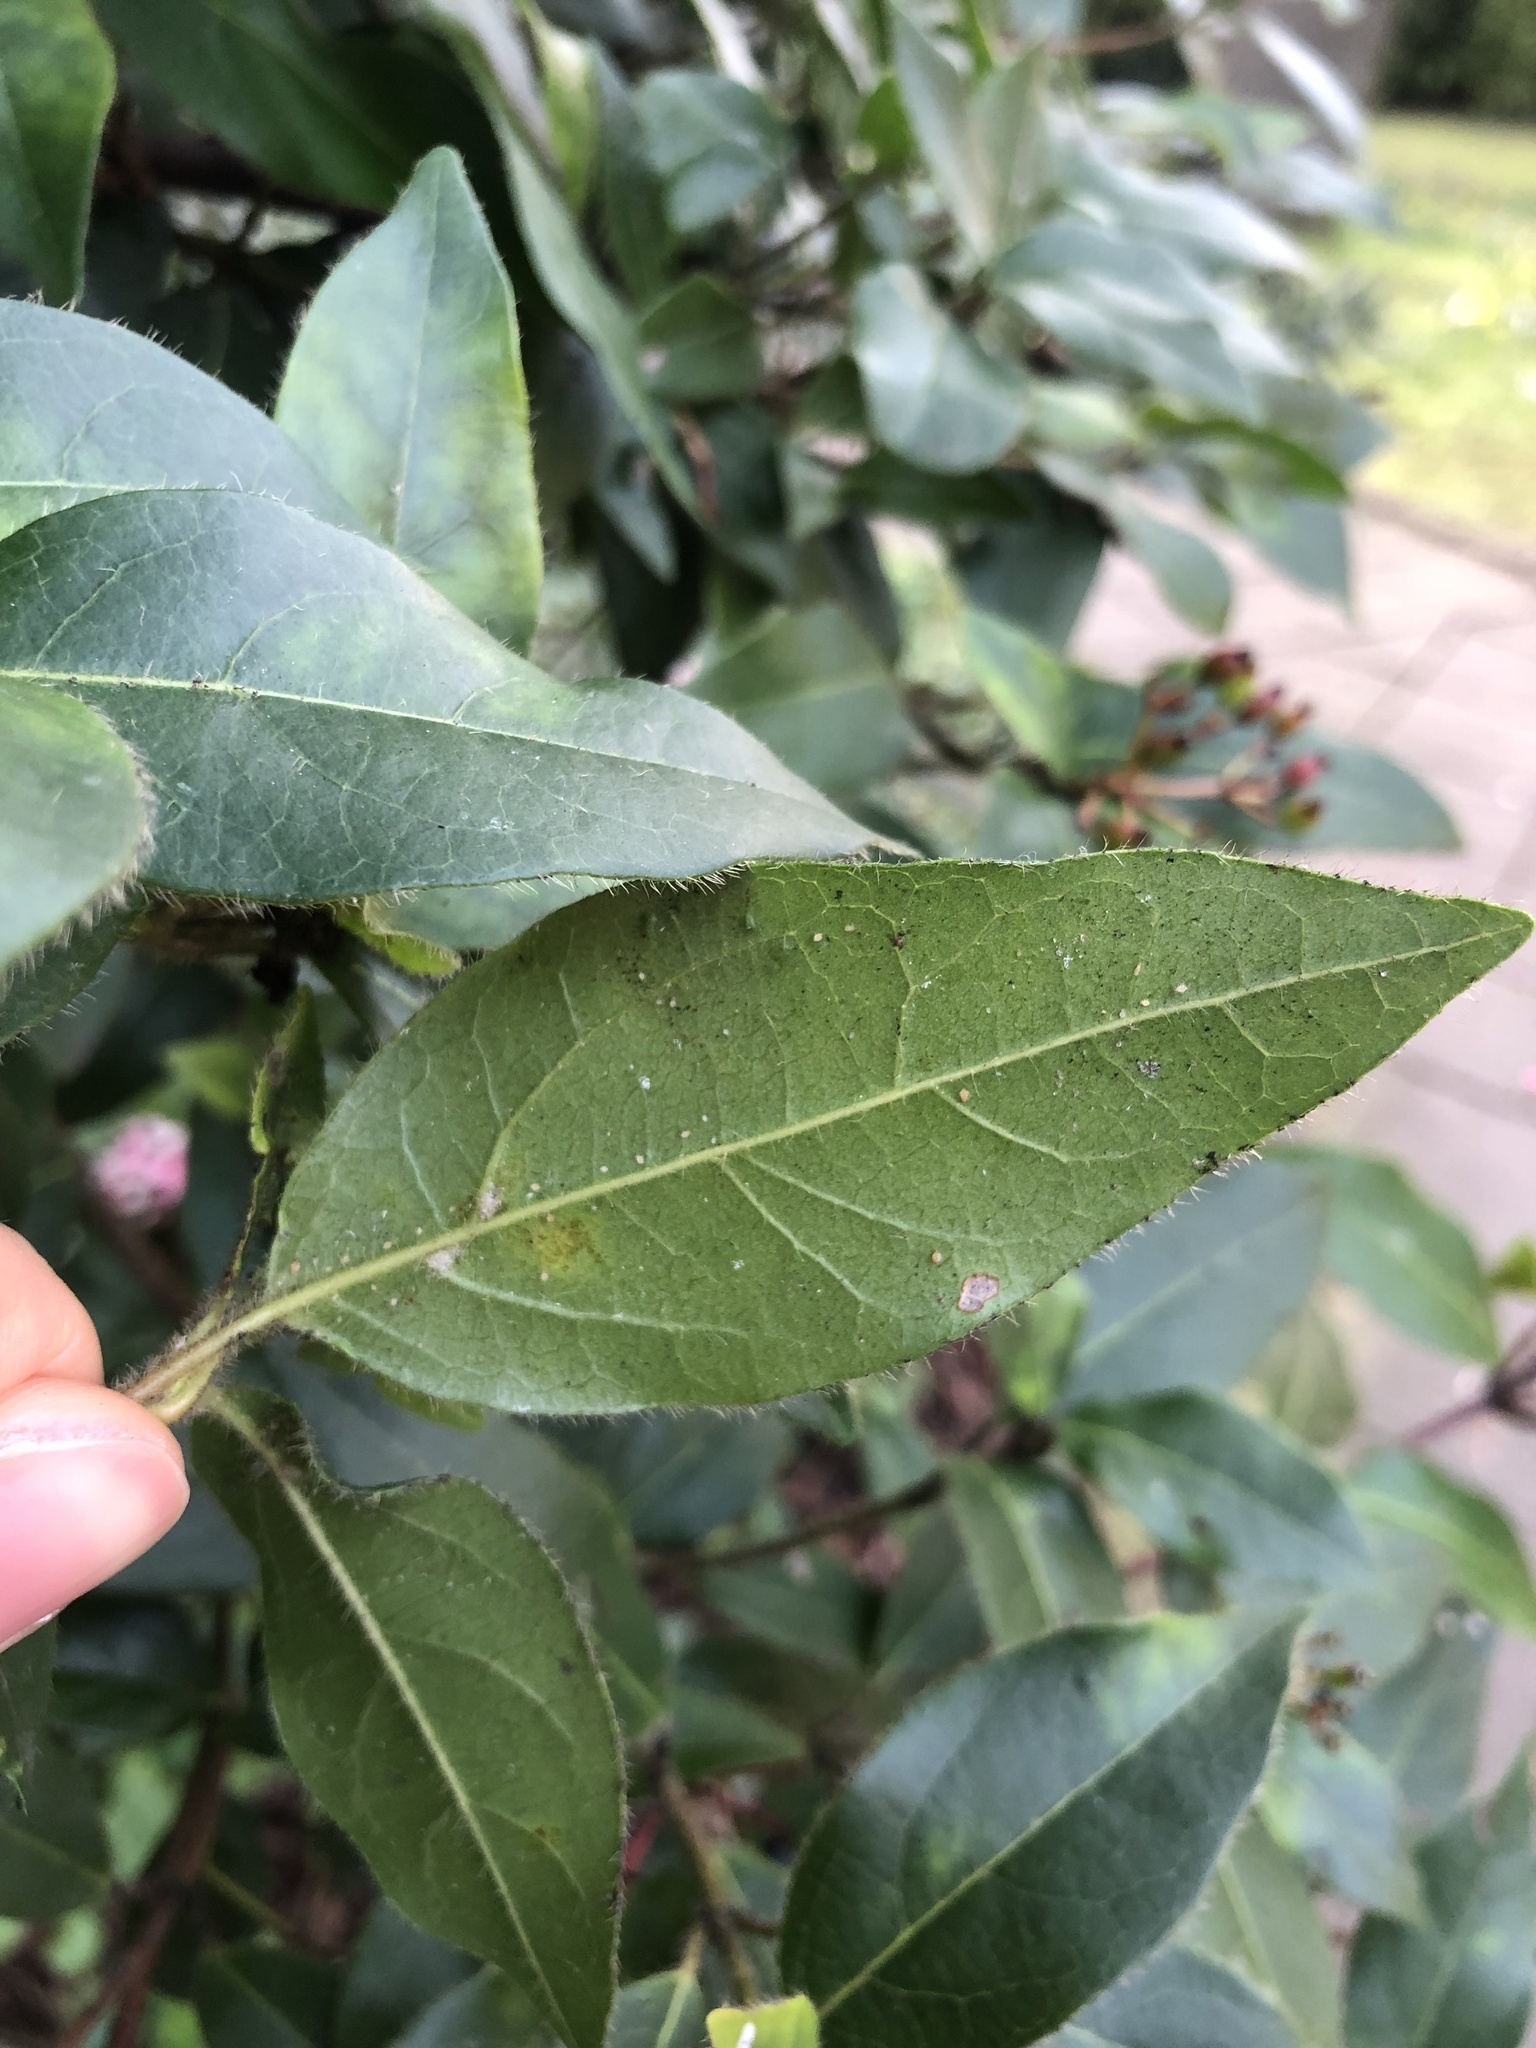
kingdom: Plantae
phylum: Tracheophyta
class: Magnoliopsida
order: Dipsacales
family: Viburnaceae
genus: Viburnum
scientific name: Viburnum tinus
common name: Laurustinus
